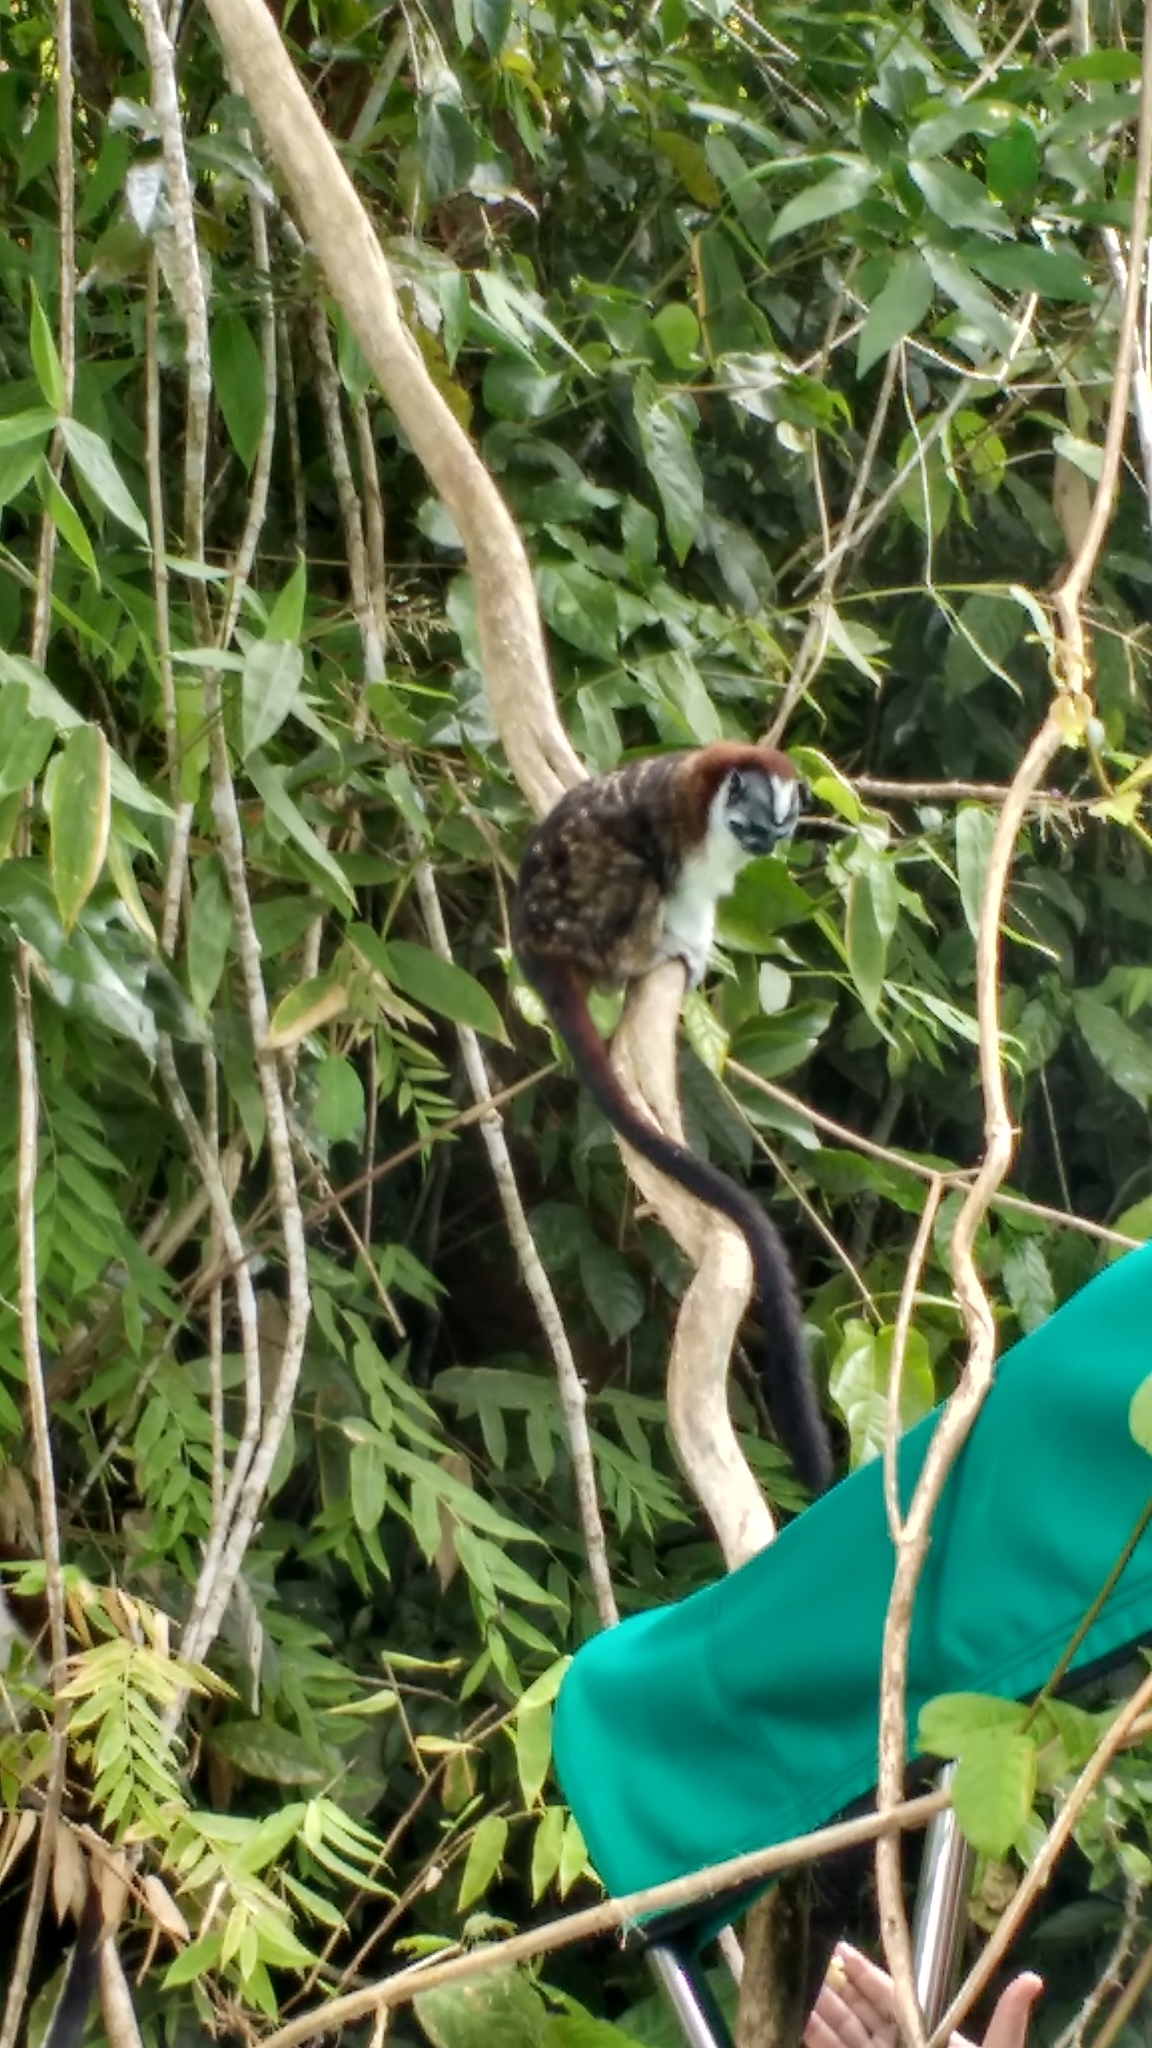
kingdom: Animalia
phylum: Chordata
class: Mammalia
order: Primates
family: Callitrichidae
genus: Saguinus
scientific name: Saguinus geoffroyi
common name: Geoffroy s tamarin
